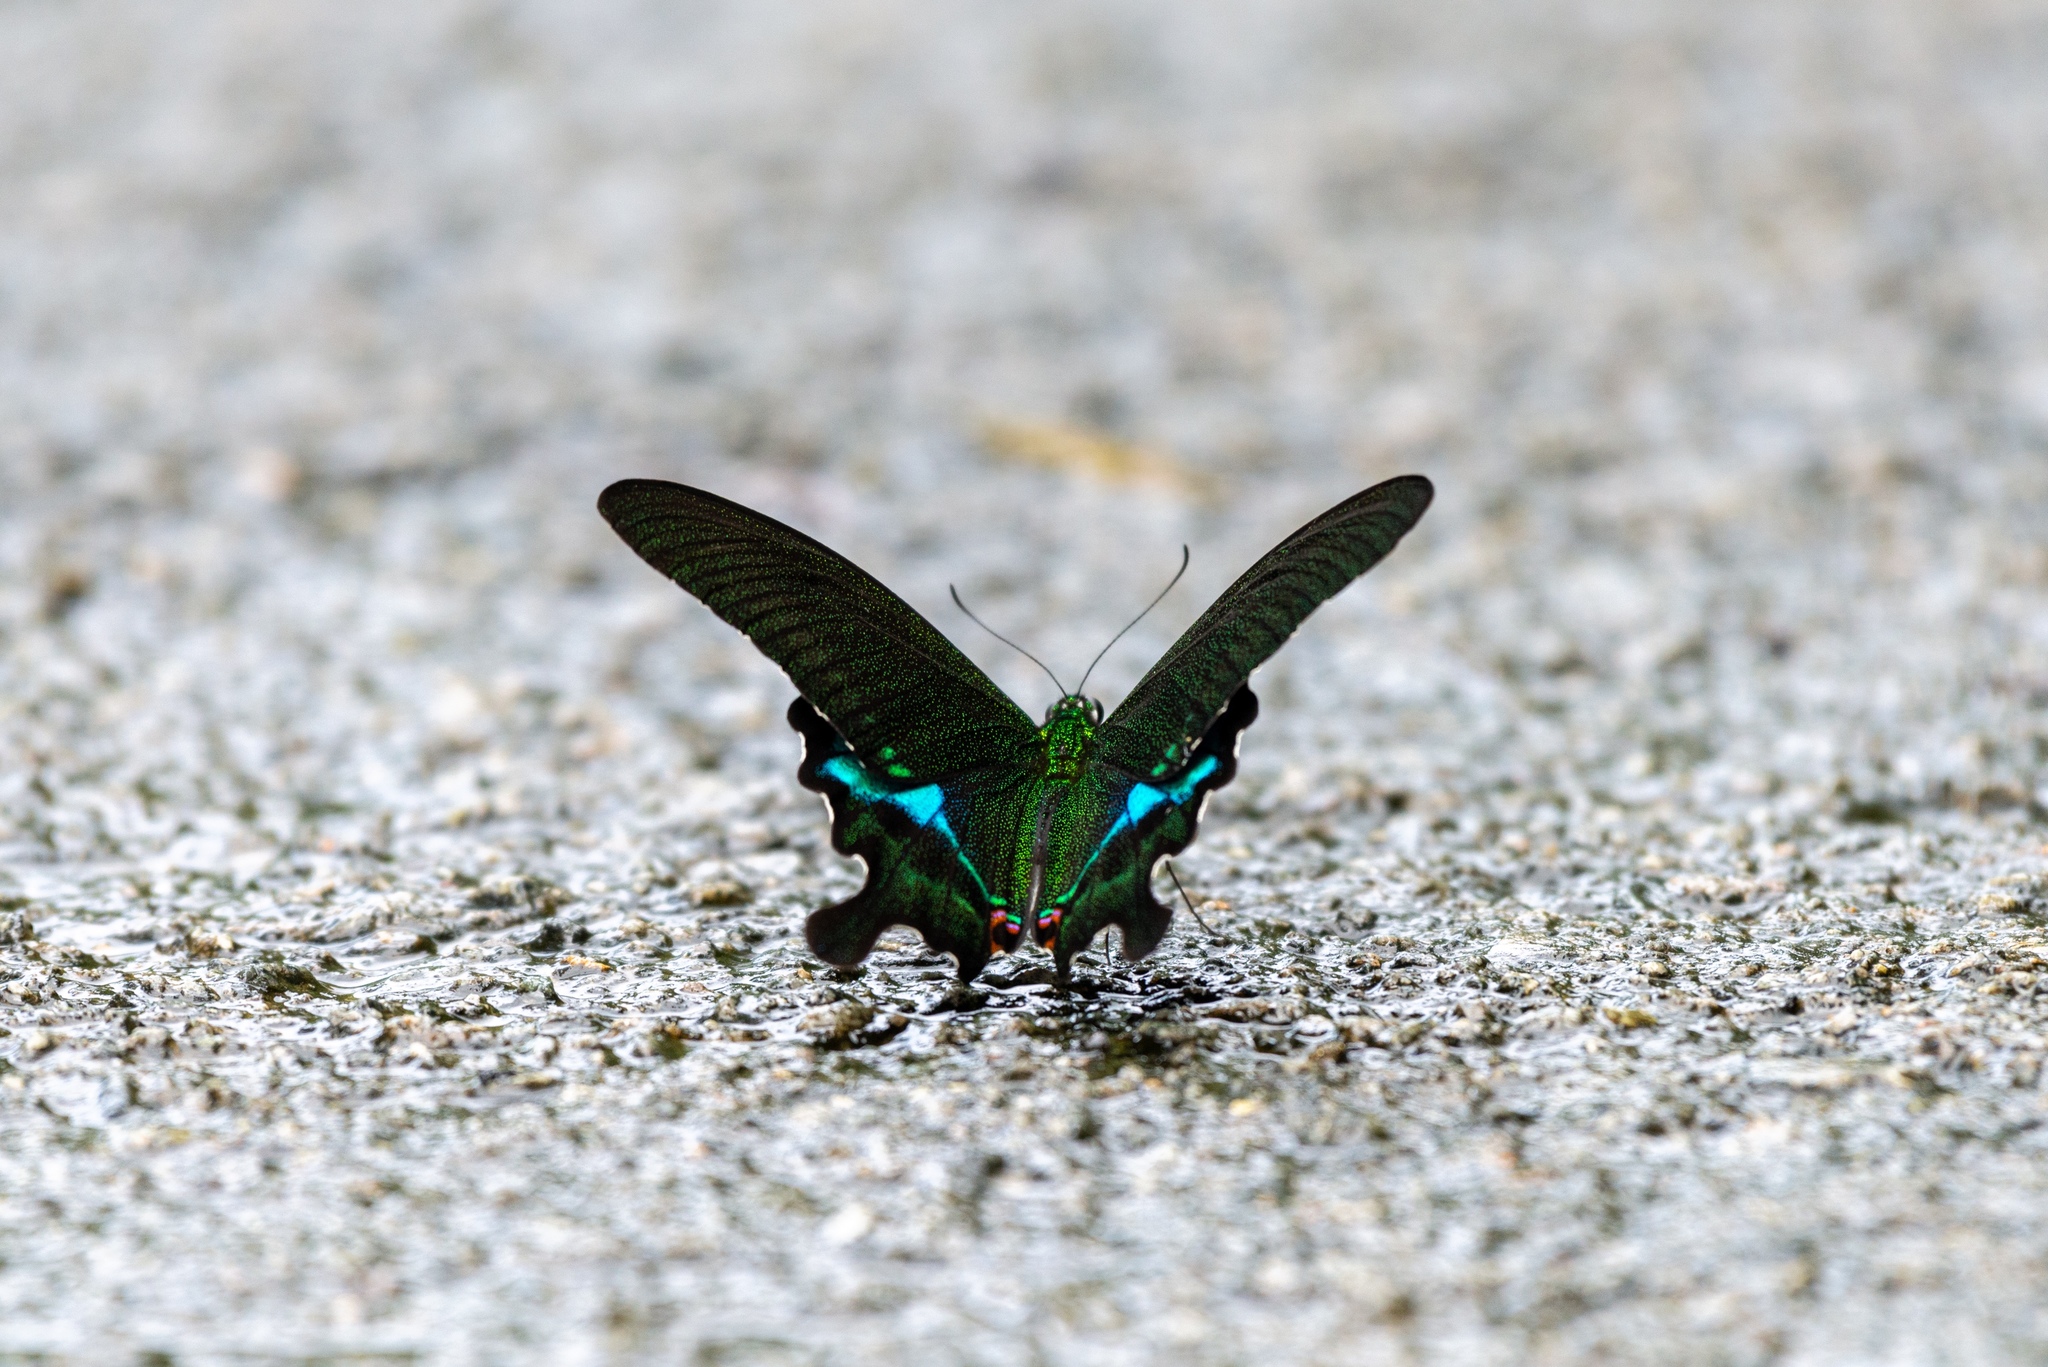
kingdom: Animalia
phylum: Arthropoda
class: Insecta
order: Lepidoptera
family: Papilionidae
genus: Papilio
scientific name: Papilio paris
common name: Paris peacock
